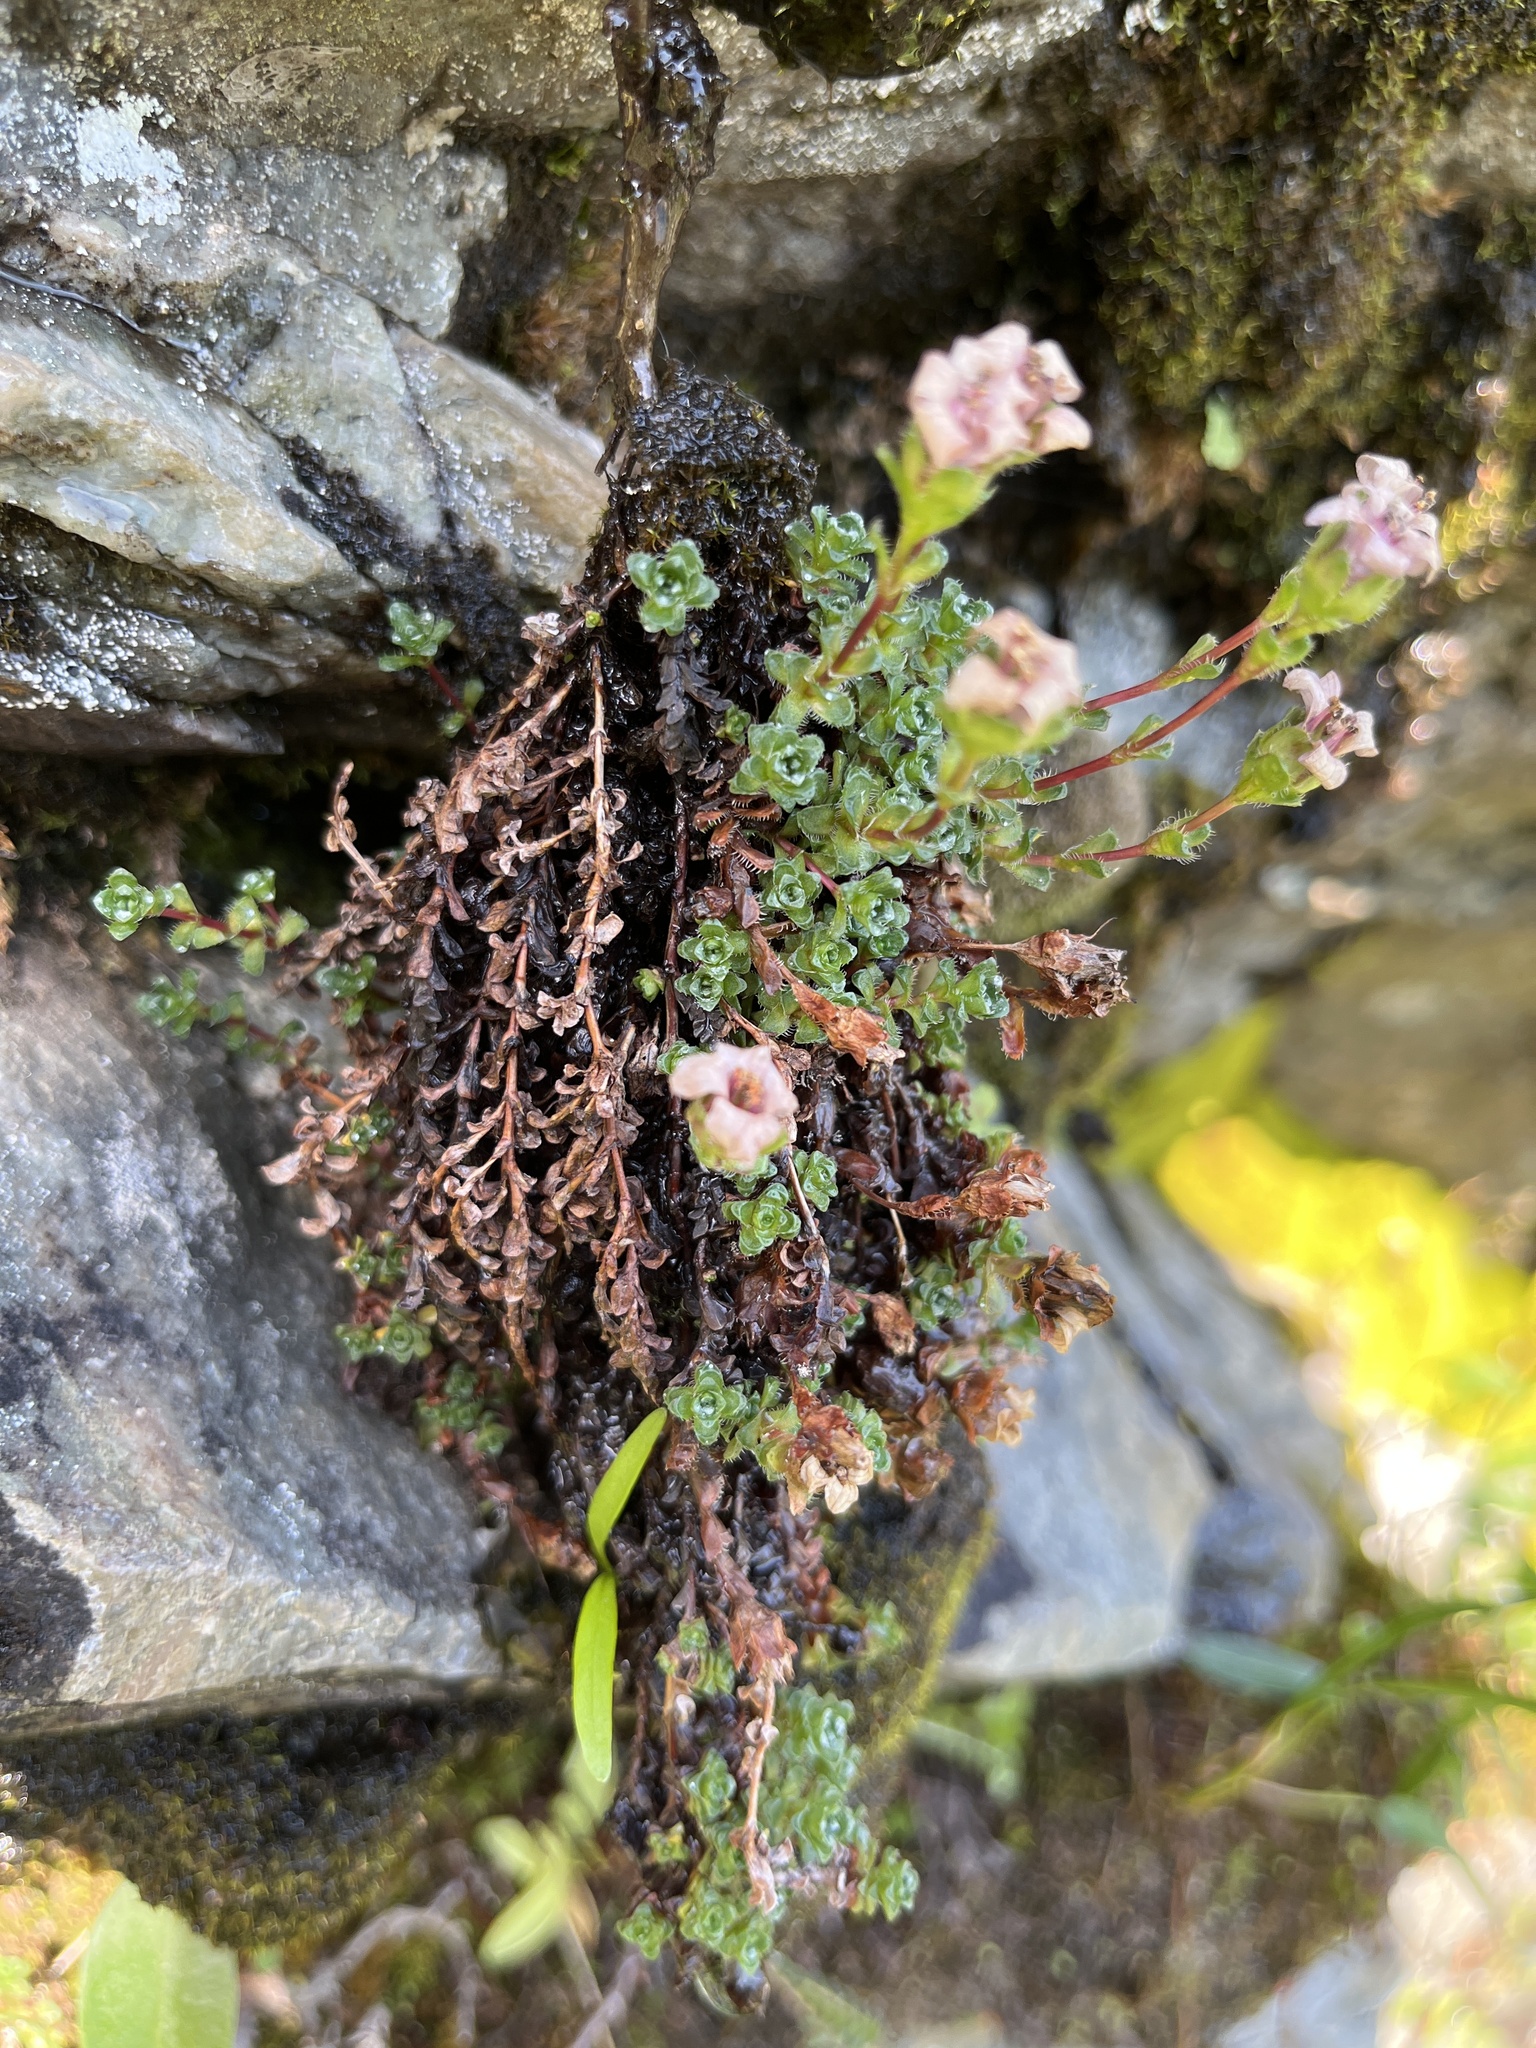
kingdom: Plantae
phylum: Tracheophyta
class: Magnoliopsida
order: Saxifragales
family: Saxifragaceae
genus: Saxifraga
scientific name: Saxifraga oppositifolia
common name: Purple saxifrage
